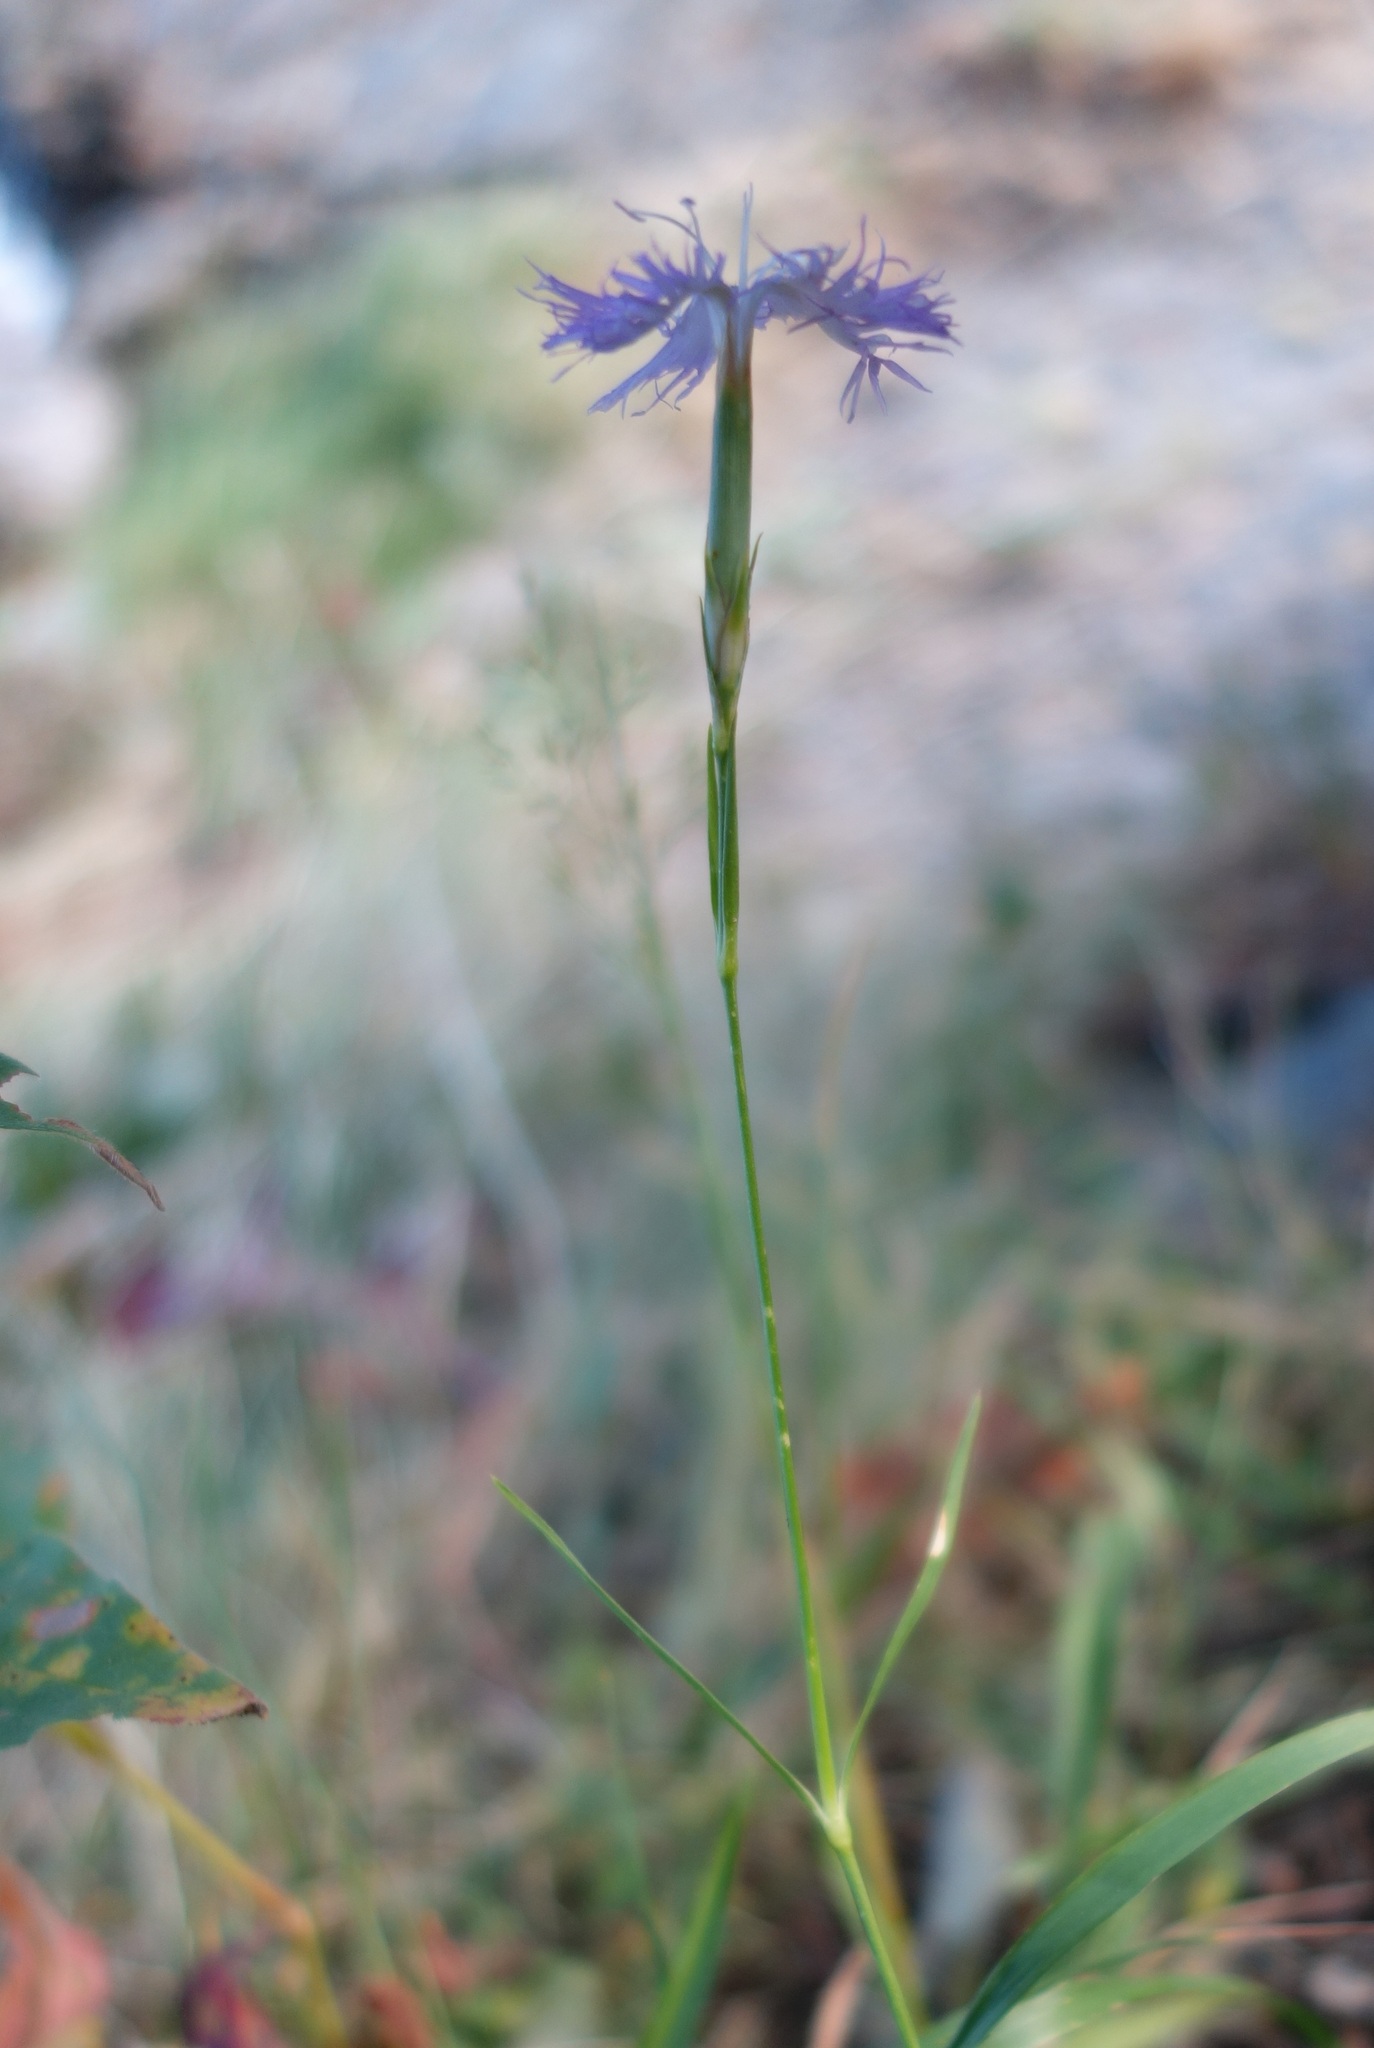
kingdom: Plantae
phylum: Tracheophyta
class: Magnoliopsida
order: Caryophyllales
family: Caryophyllaceae
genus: Dianthus
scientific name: Dianthus hyssopifolius
